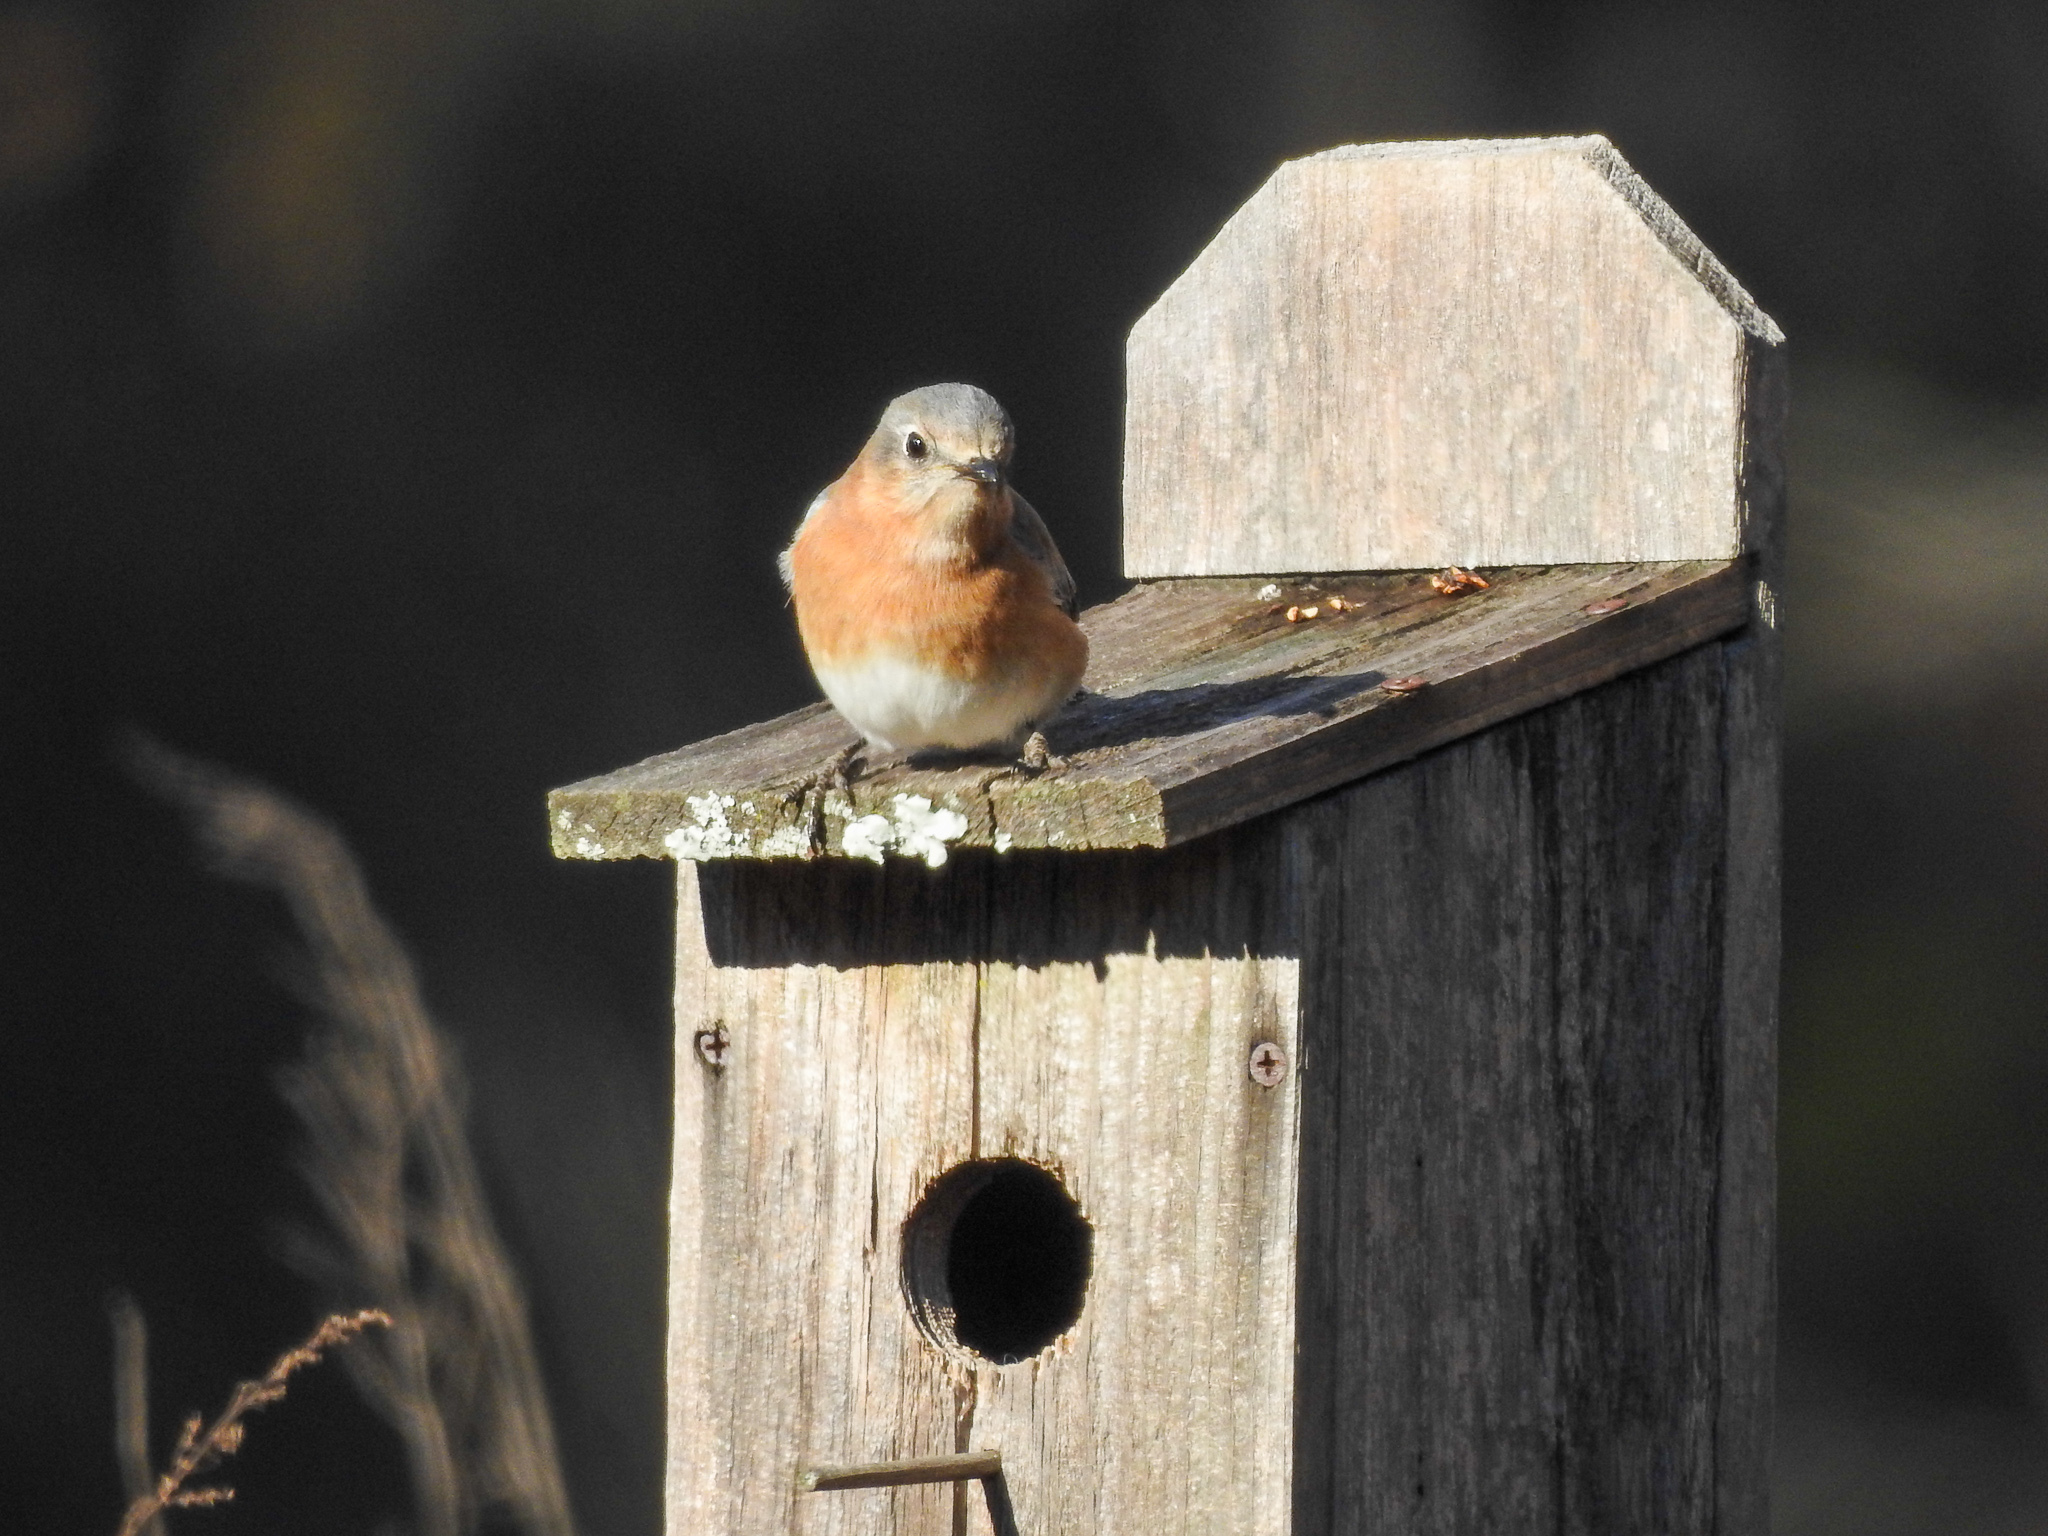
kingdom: Animalia
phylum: Chordata
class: Aves
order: Passeriformes
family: Turdidae
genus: Sialia
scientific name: Sialia sialis
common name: Eastern bluebird
